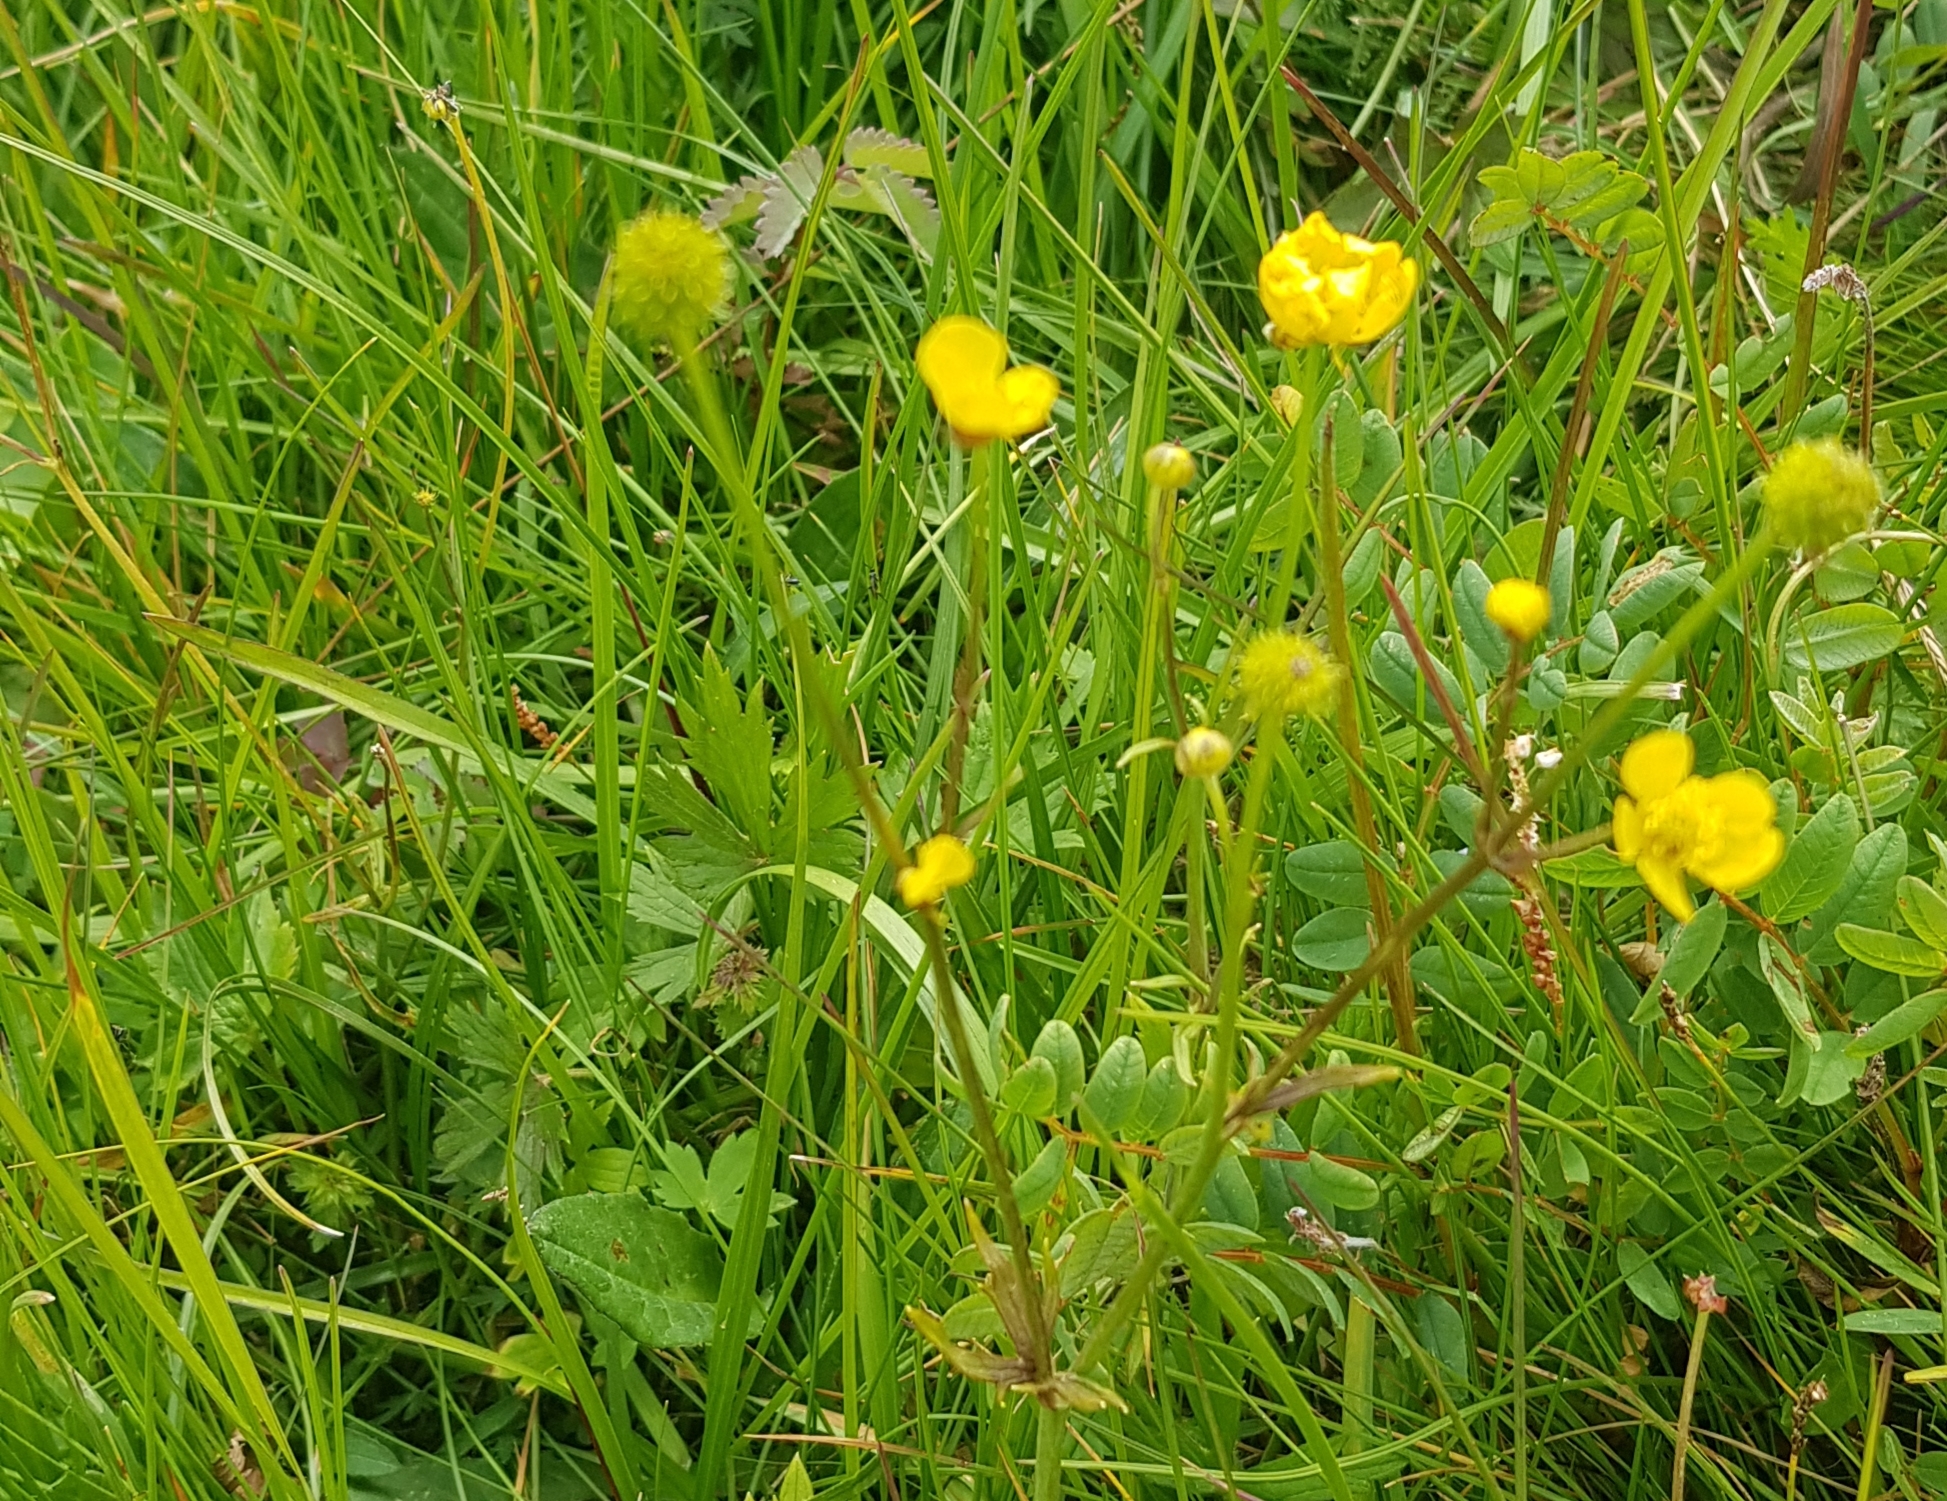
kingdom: Plantae
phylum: Tracheophyta
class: Magnoliopsida
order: Ranunculales
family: Ranunculaceae
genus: Ranunculus
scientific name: Ranunculus propinquus
